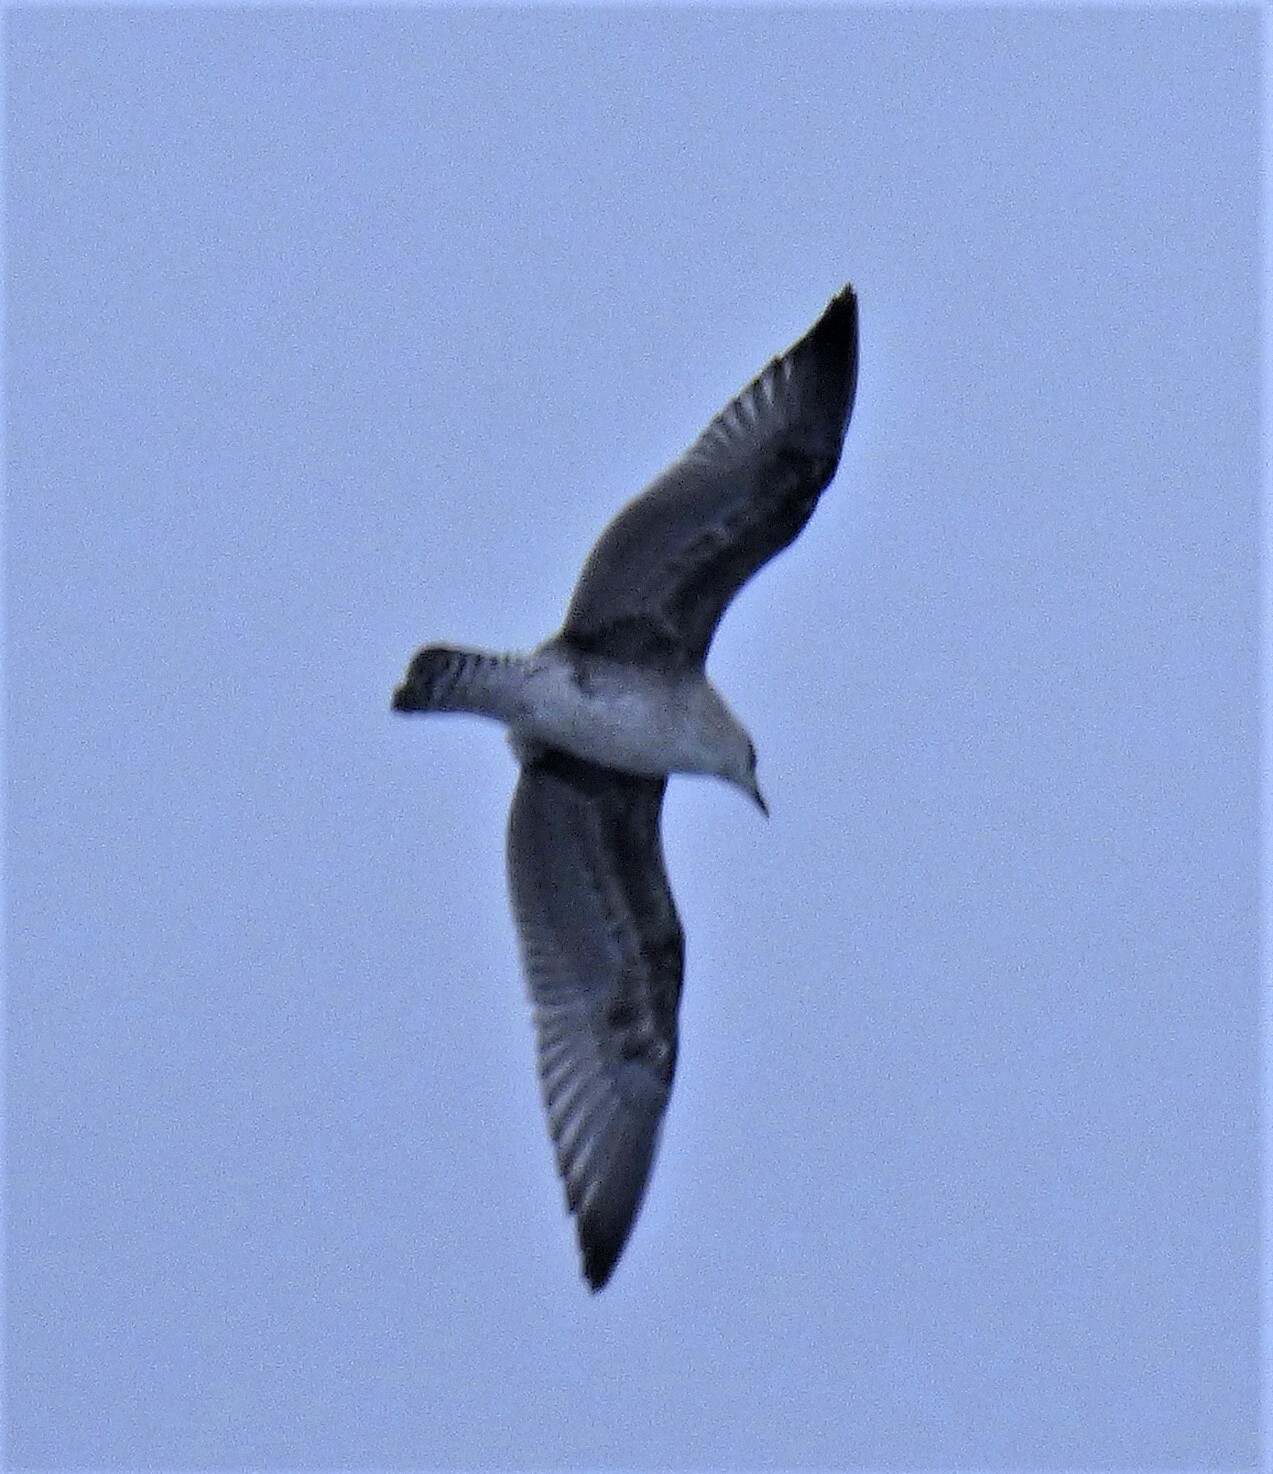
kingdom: Animalia
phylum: Chordata
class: Aves
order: Charadriiformes
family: Laridae
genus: Larus
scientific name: Larus dominicanus
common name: Kelp gull
